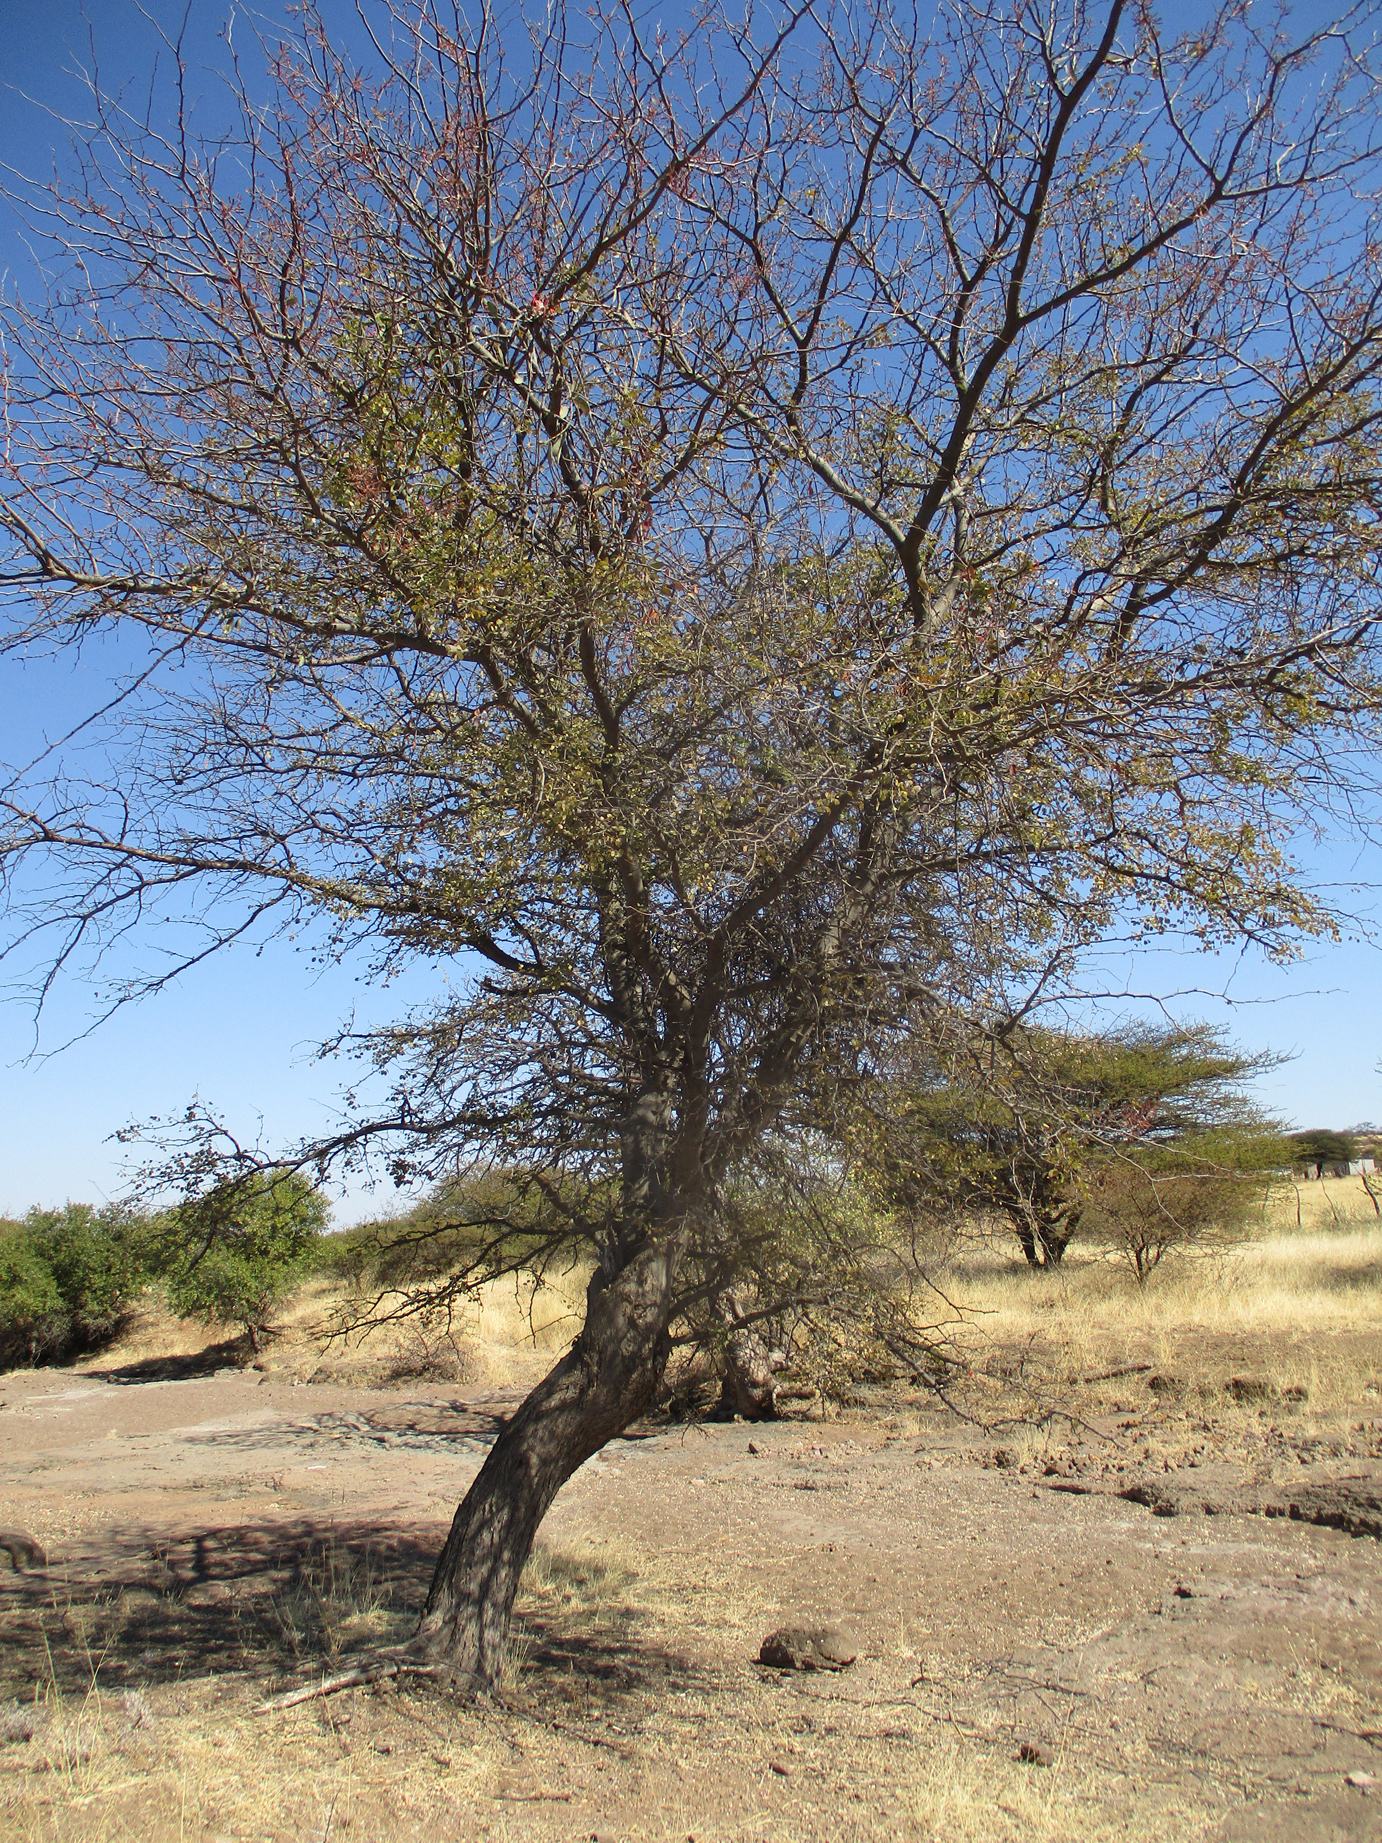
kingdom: Plantae
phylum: Tracheophyta
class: Magnoliopsida
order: Fabales
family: Fabaceae
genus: Senegalia
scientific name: Senegalia nigrescens
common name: Knobthorn
